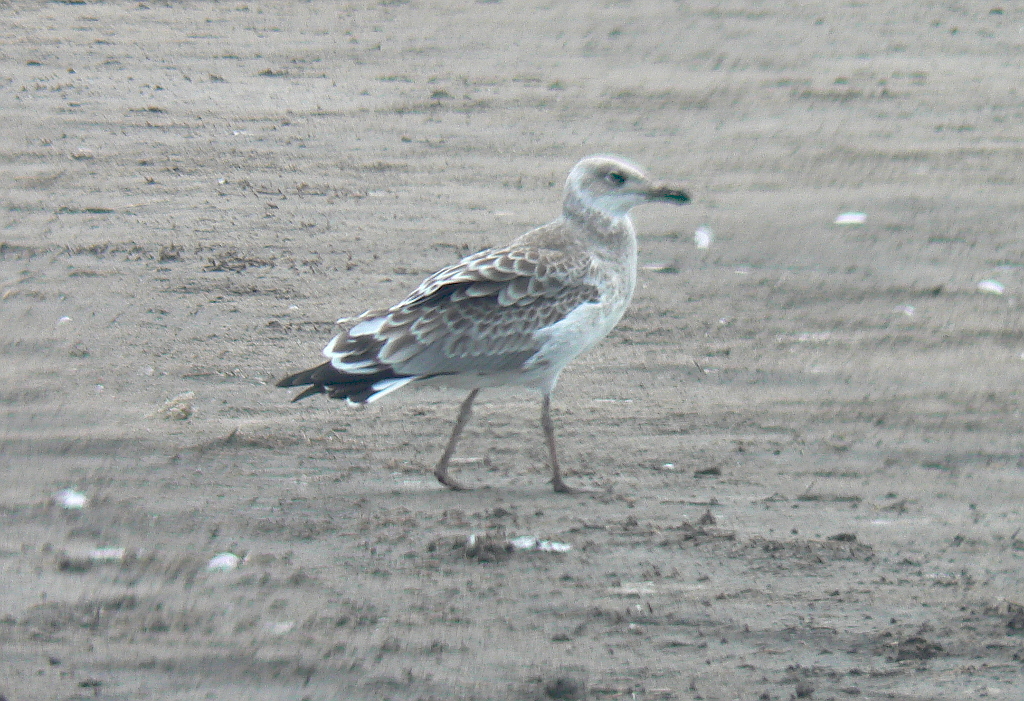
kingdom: Animalia
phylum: Chordata
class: Aves
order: Charadriiformes
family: Laridae
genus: Larus
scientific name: Larus fuscus
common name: Lesser black-backed gull
